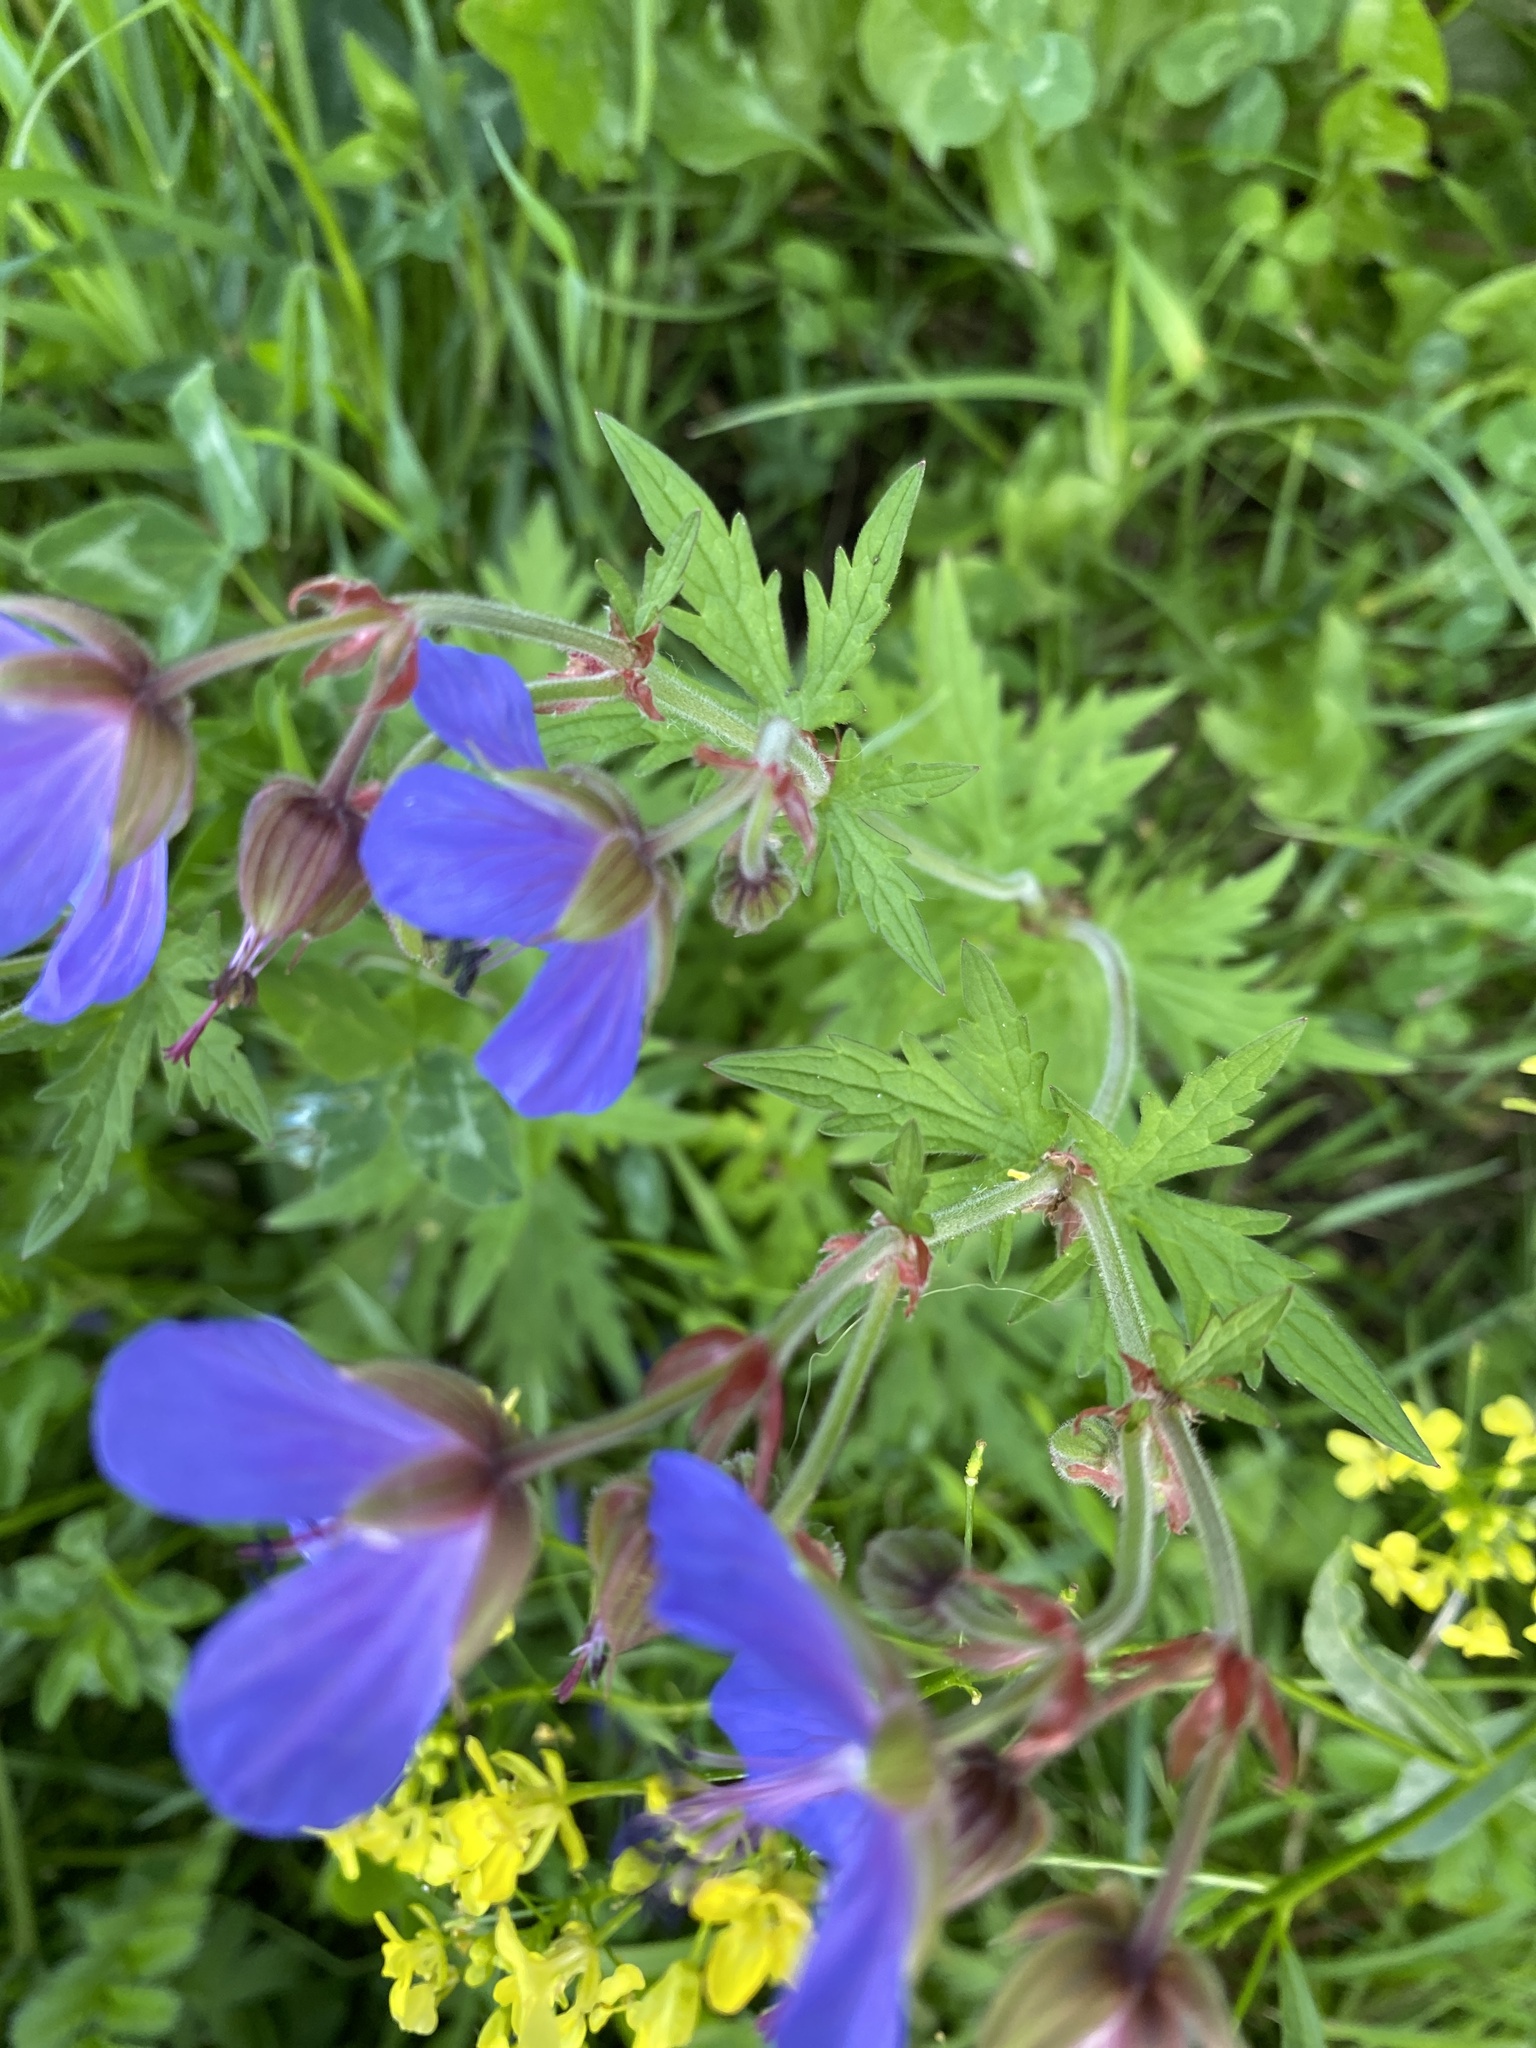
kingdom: Plantae
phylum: Tracheophyta
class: Magnoliopsida
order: Geraniales
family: Geraniaceae
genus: Geranium
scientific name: Geranium pratense
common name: Meadow crane's-bill
